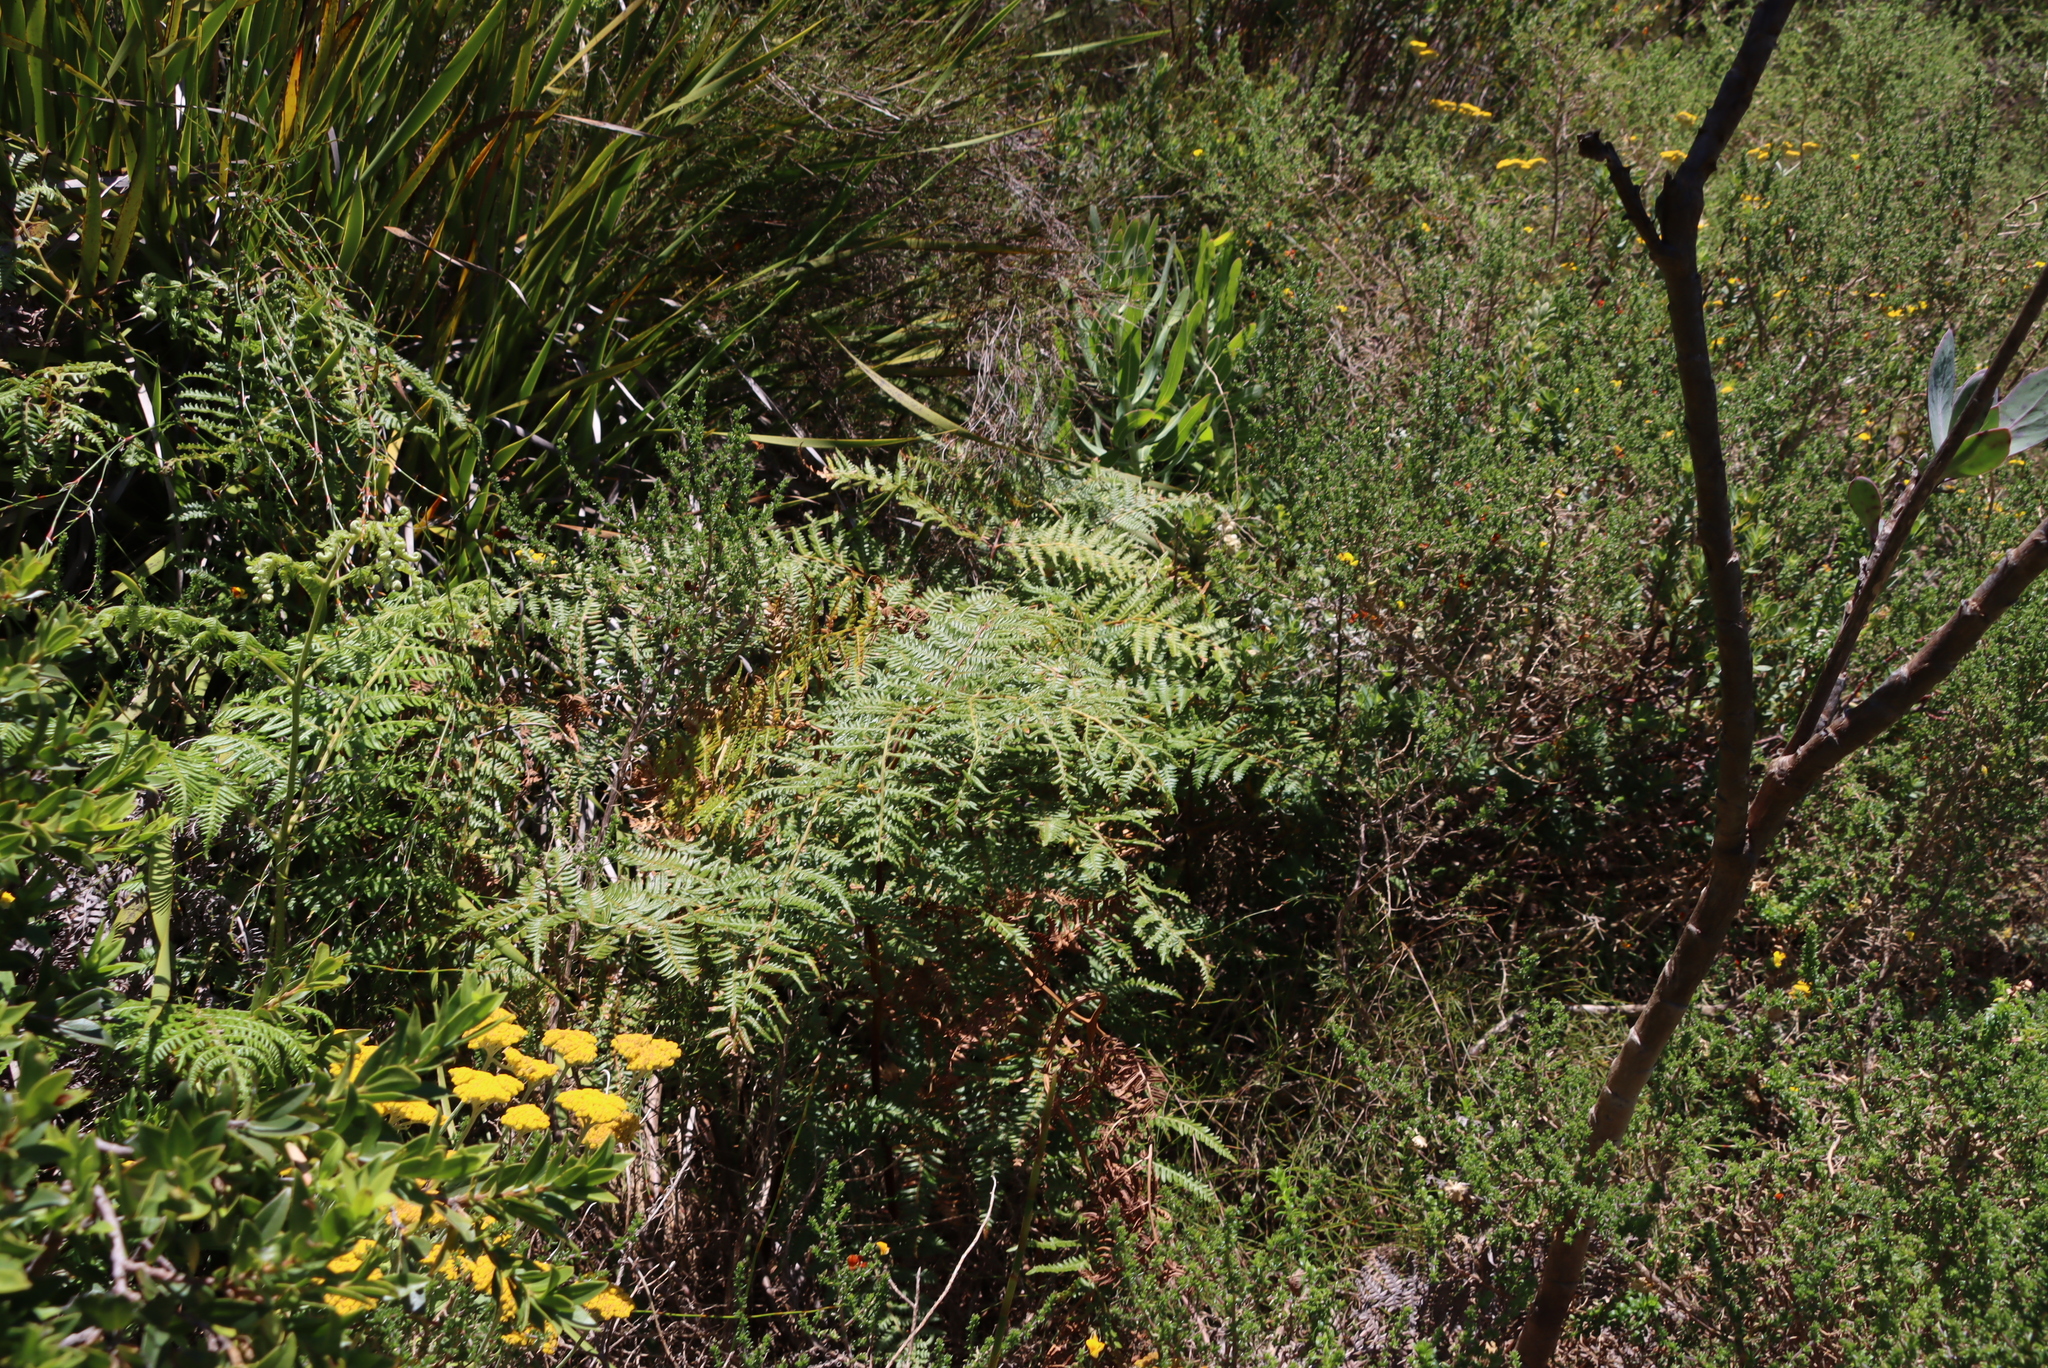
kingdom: Plantae
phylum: Tracheophyta
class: Polypodiopsida
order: Polypodiales
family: Dennstaedtiaceae
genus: Pteridium
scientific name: Pteridium aquilinum
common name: Bracken
